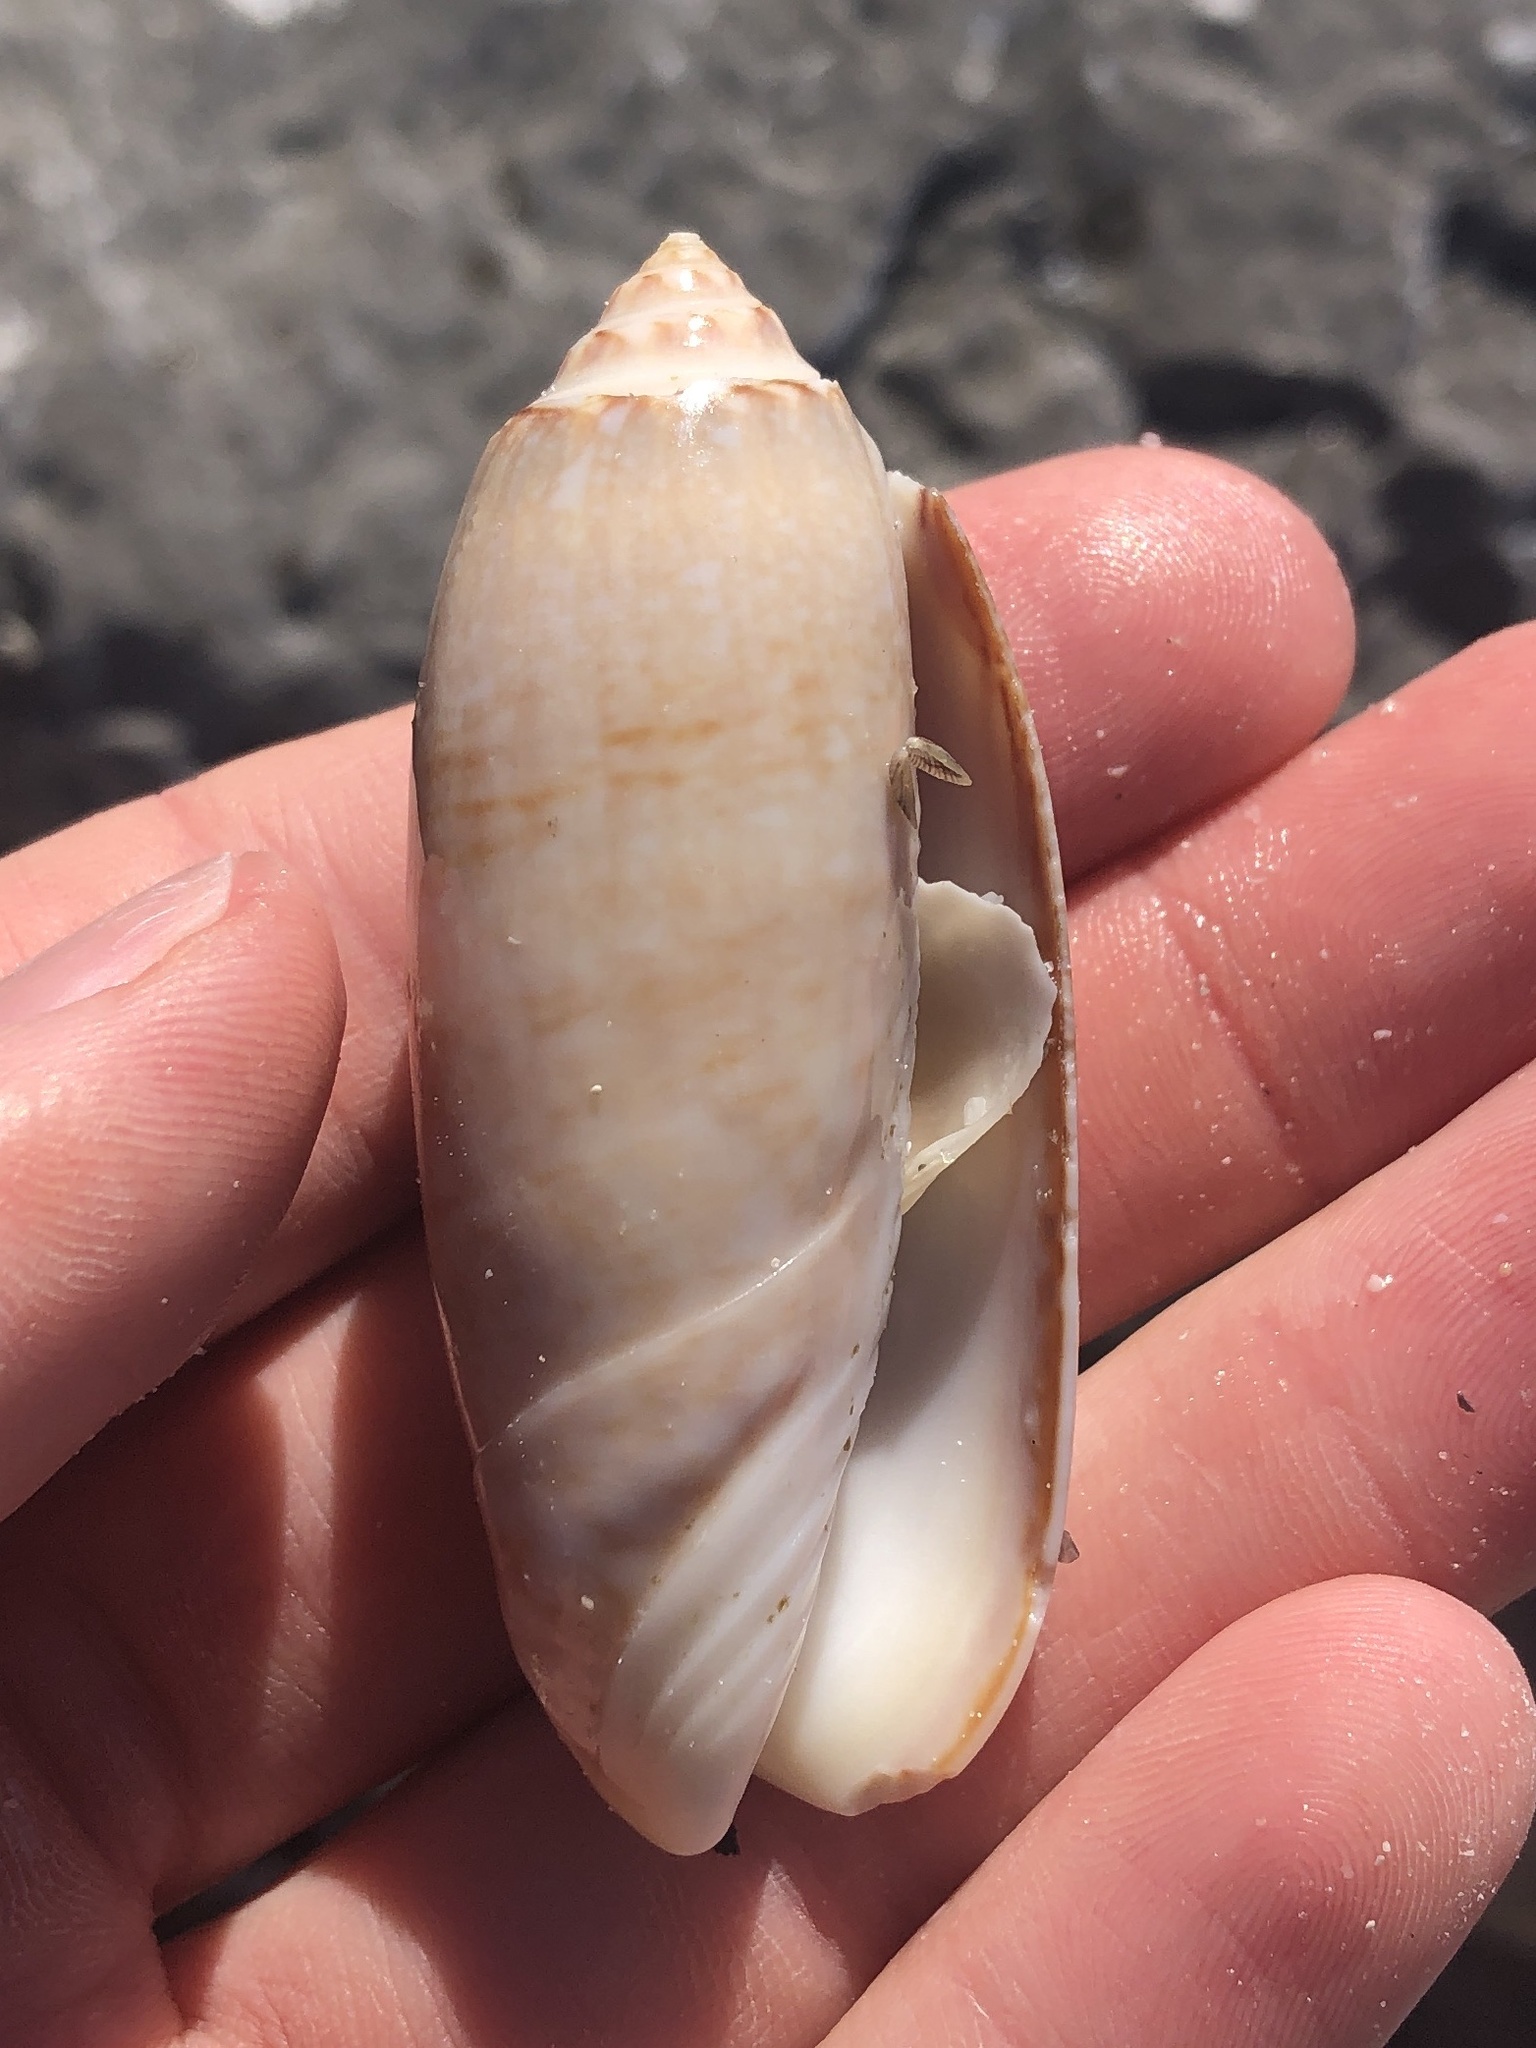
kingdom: Animalia
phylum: Mollusca
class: Gastropoda
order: Neogastropoda
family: Olividae
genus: Oliva
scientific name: Oliva sayana
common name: Lettered olive
